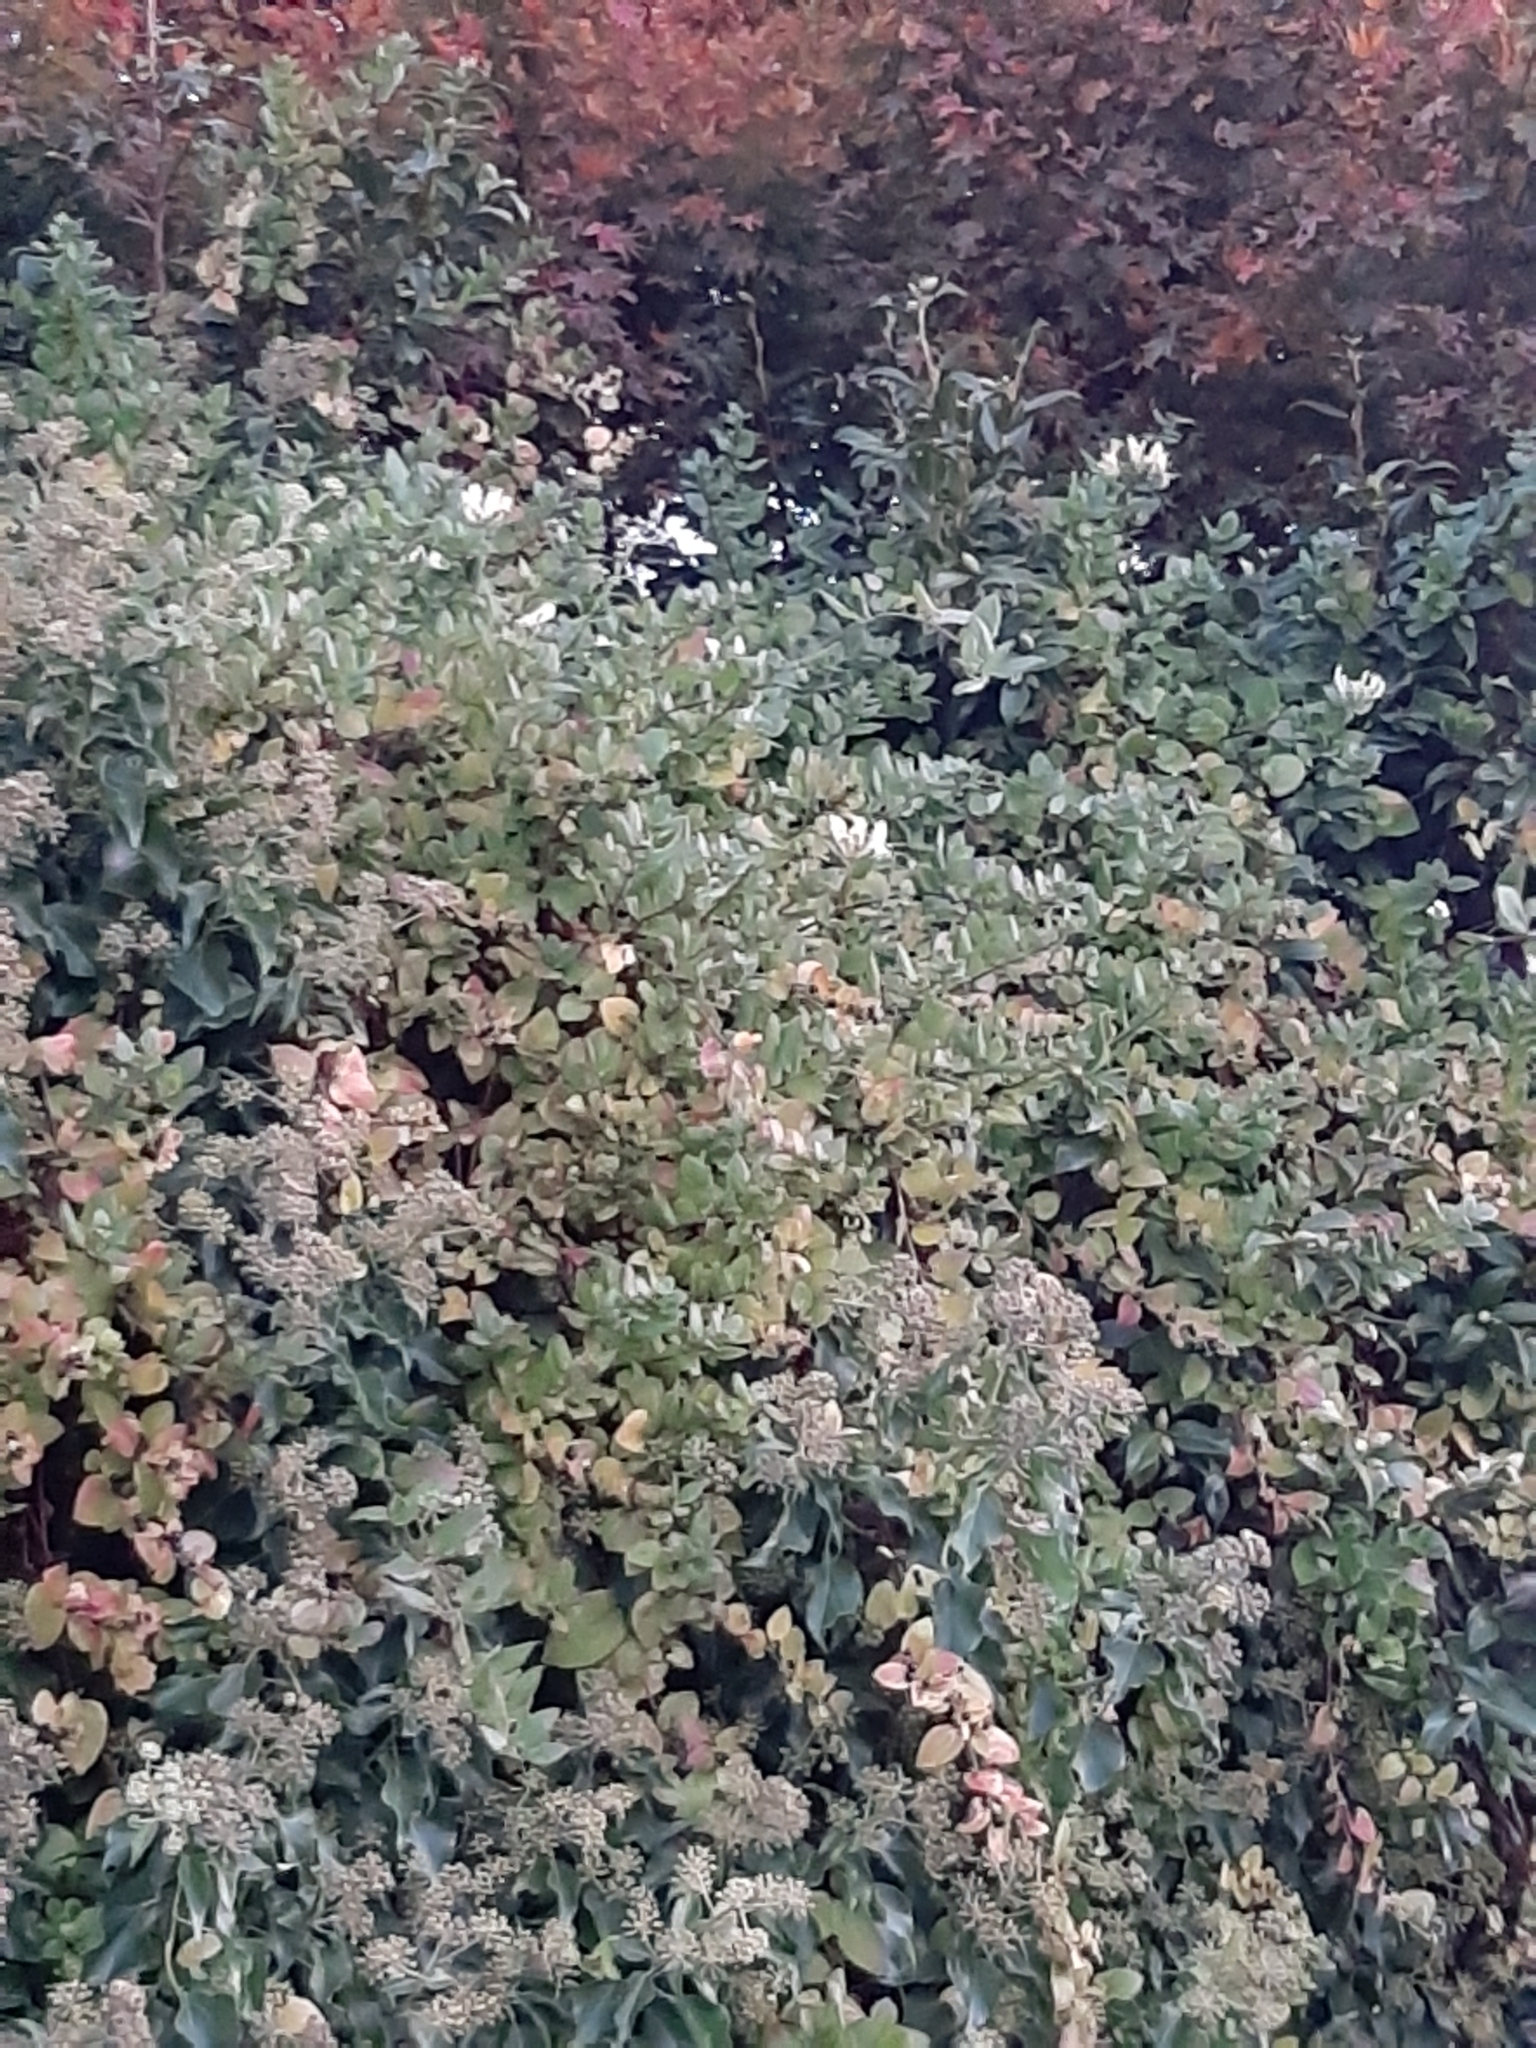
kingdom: Plantae
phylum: Tracheophyta
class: Magnoliopsida
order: Dipsacales
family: Caprifoliaceae
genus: Lonicera
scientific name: Lonicera japonica
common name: Japanese honeysuckle
